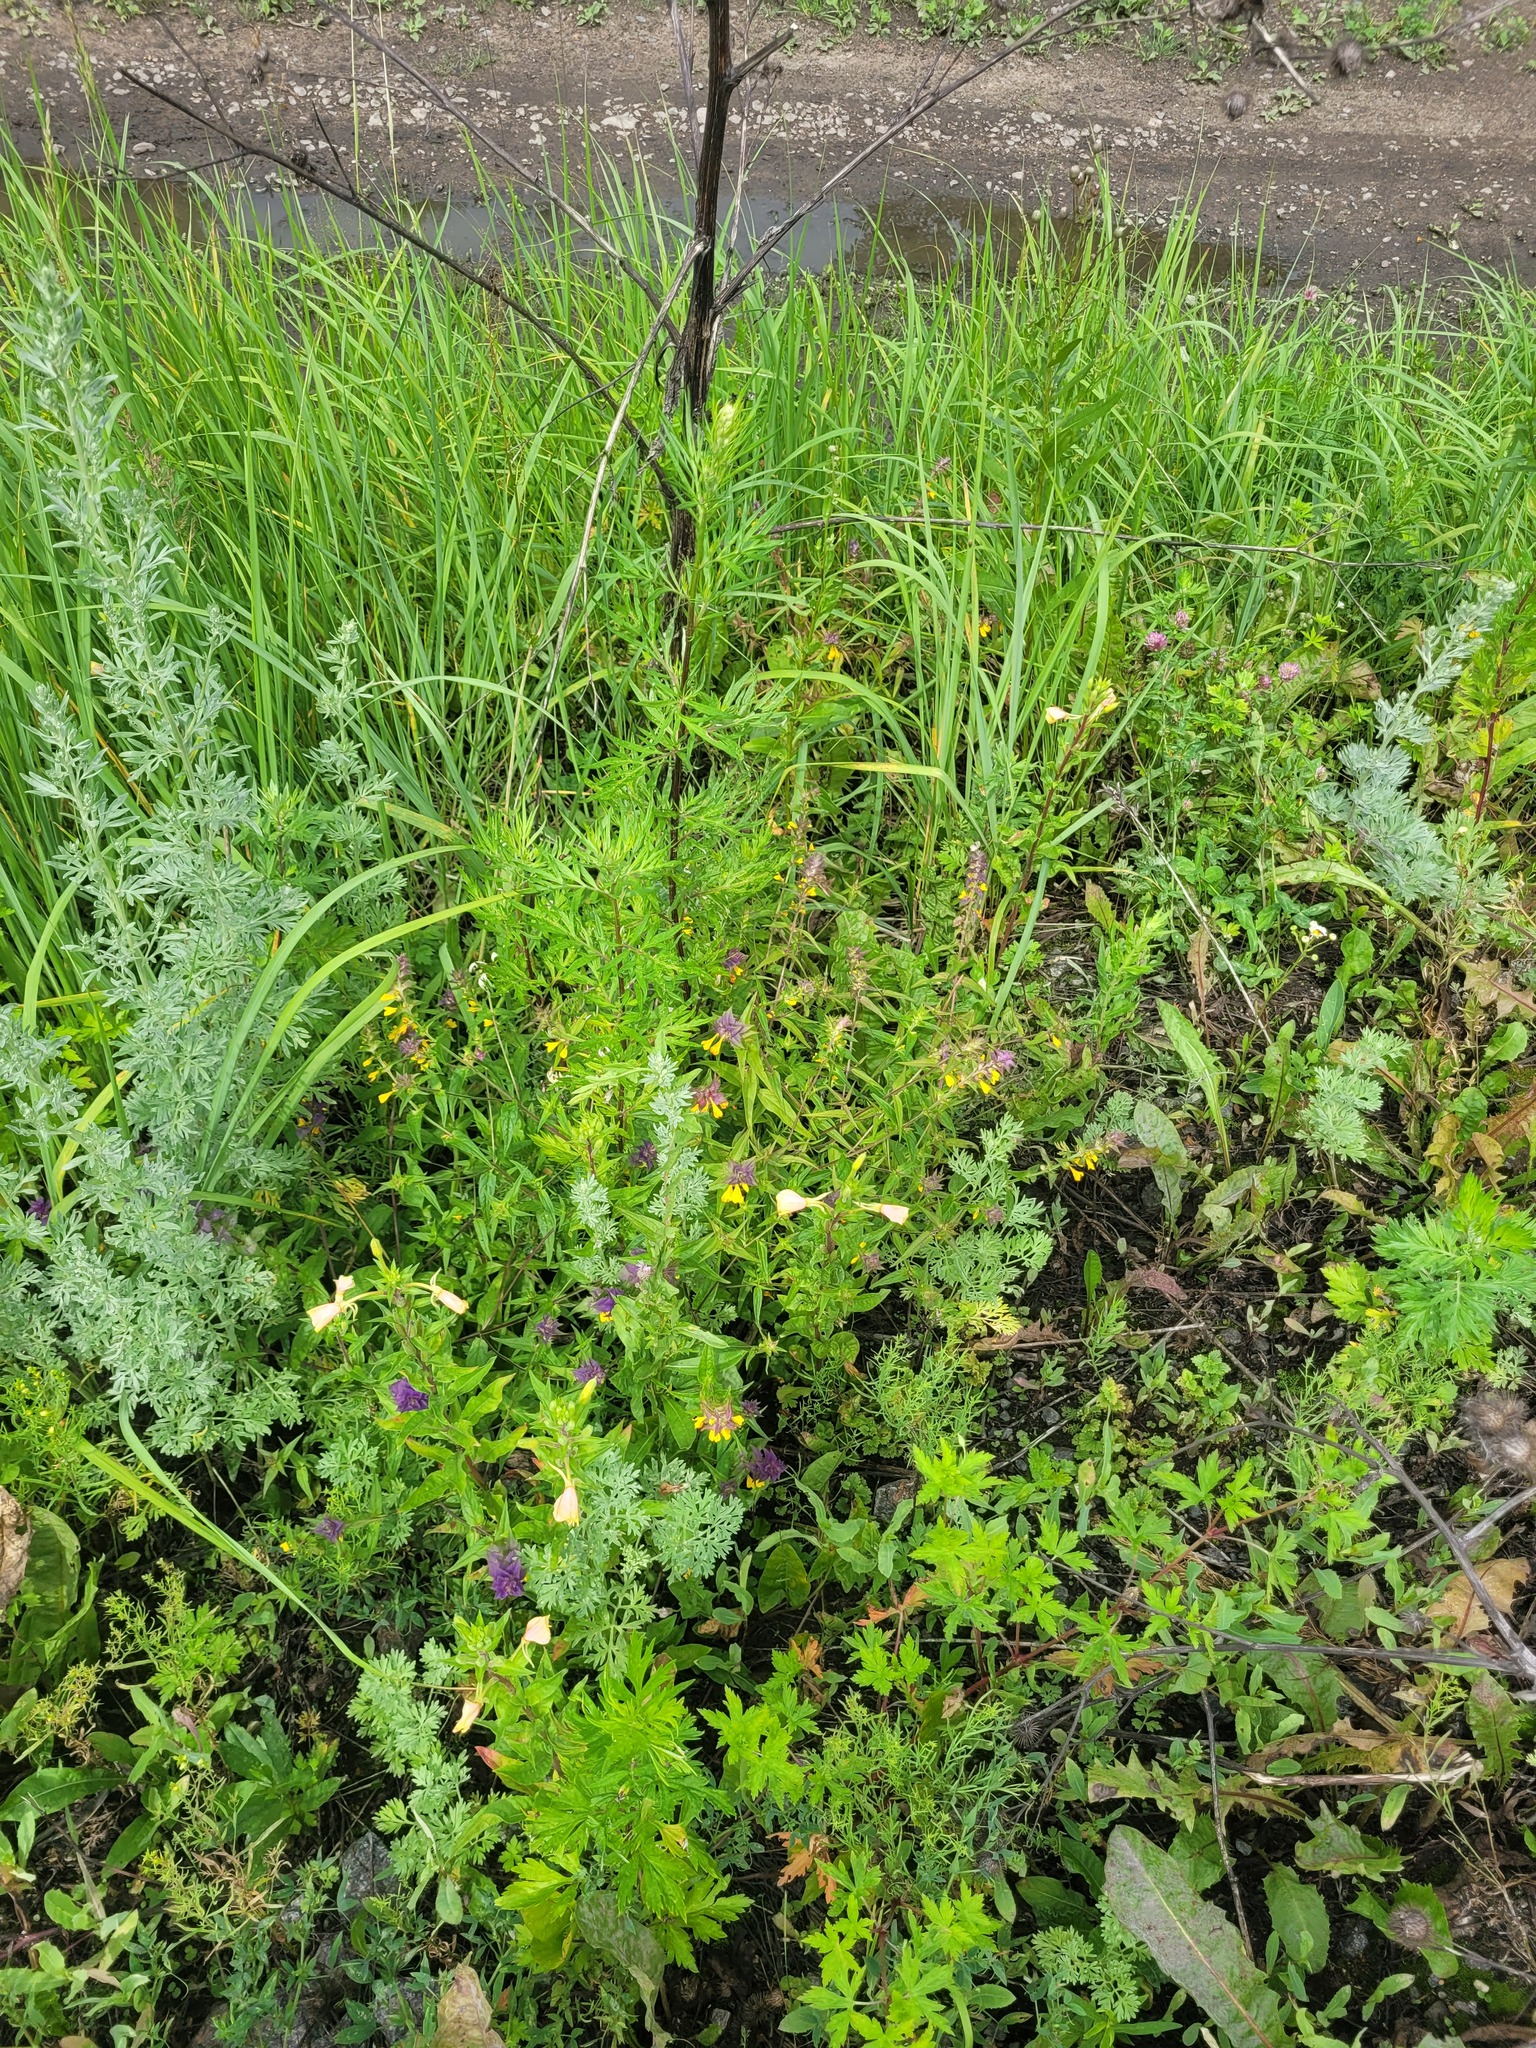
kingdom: Plantae
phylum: Tracheophyta
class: Magnoliopsida
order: Lamiales
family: Orobanchaceae
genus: Melampyrum
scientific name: Melampyrum nemorosum
